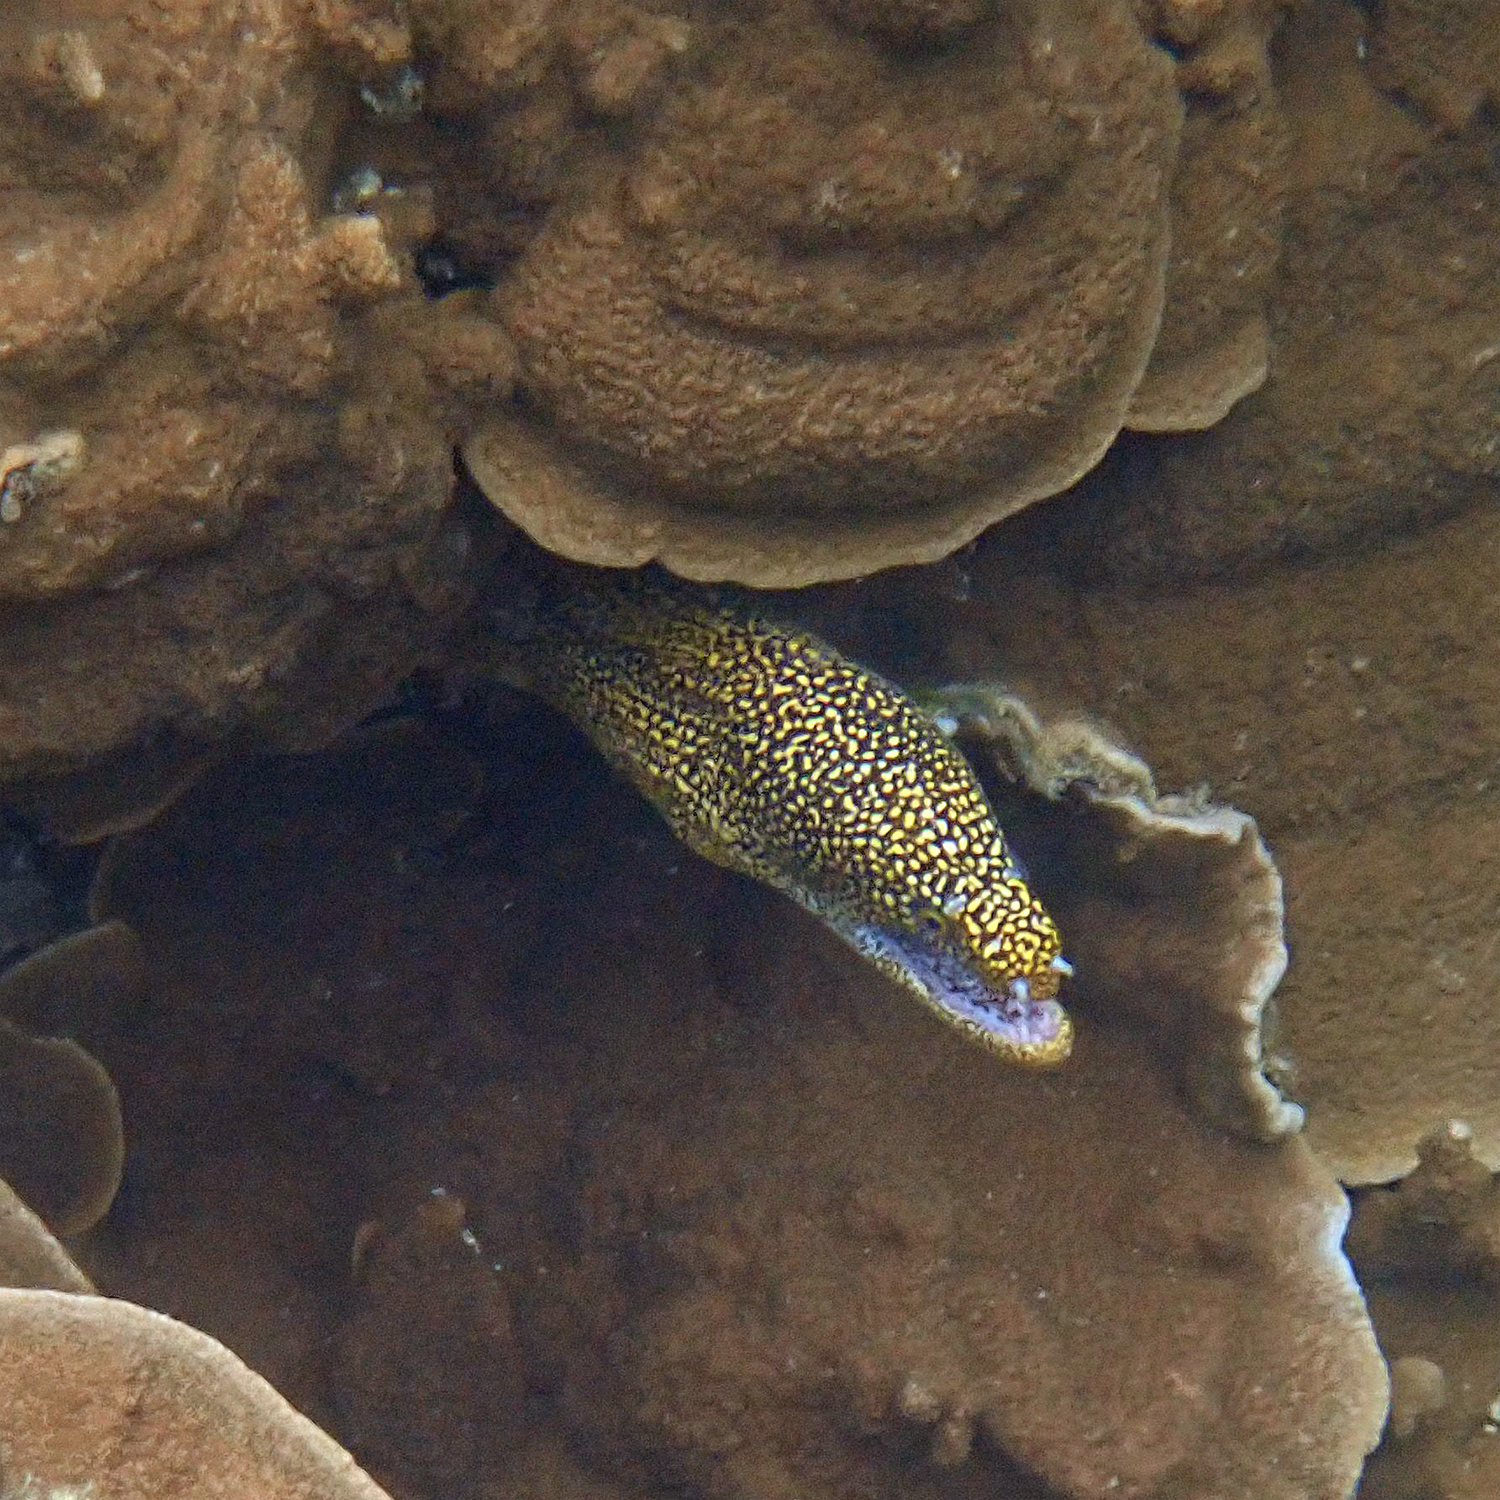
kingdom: Animalia
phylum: Chordata
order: Anguilliformes
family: Muraenidae
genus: Gymnothorax
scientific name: Gymnothorax eurostus
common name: Stout moray
